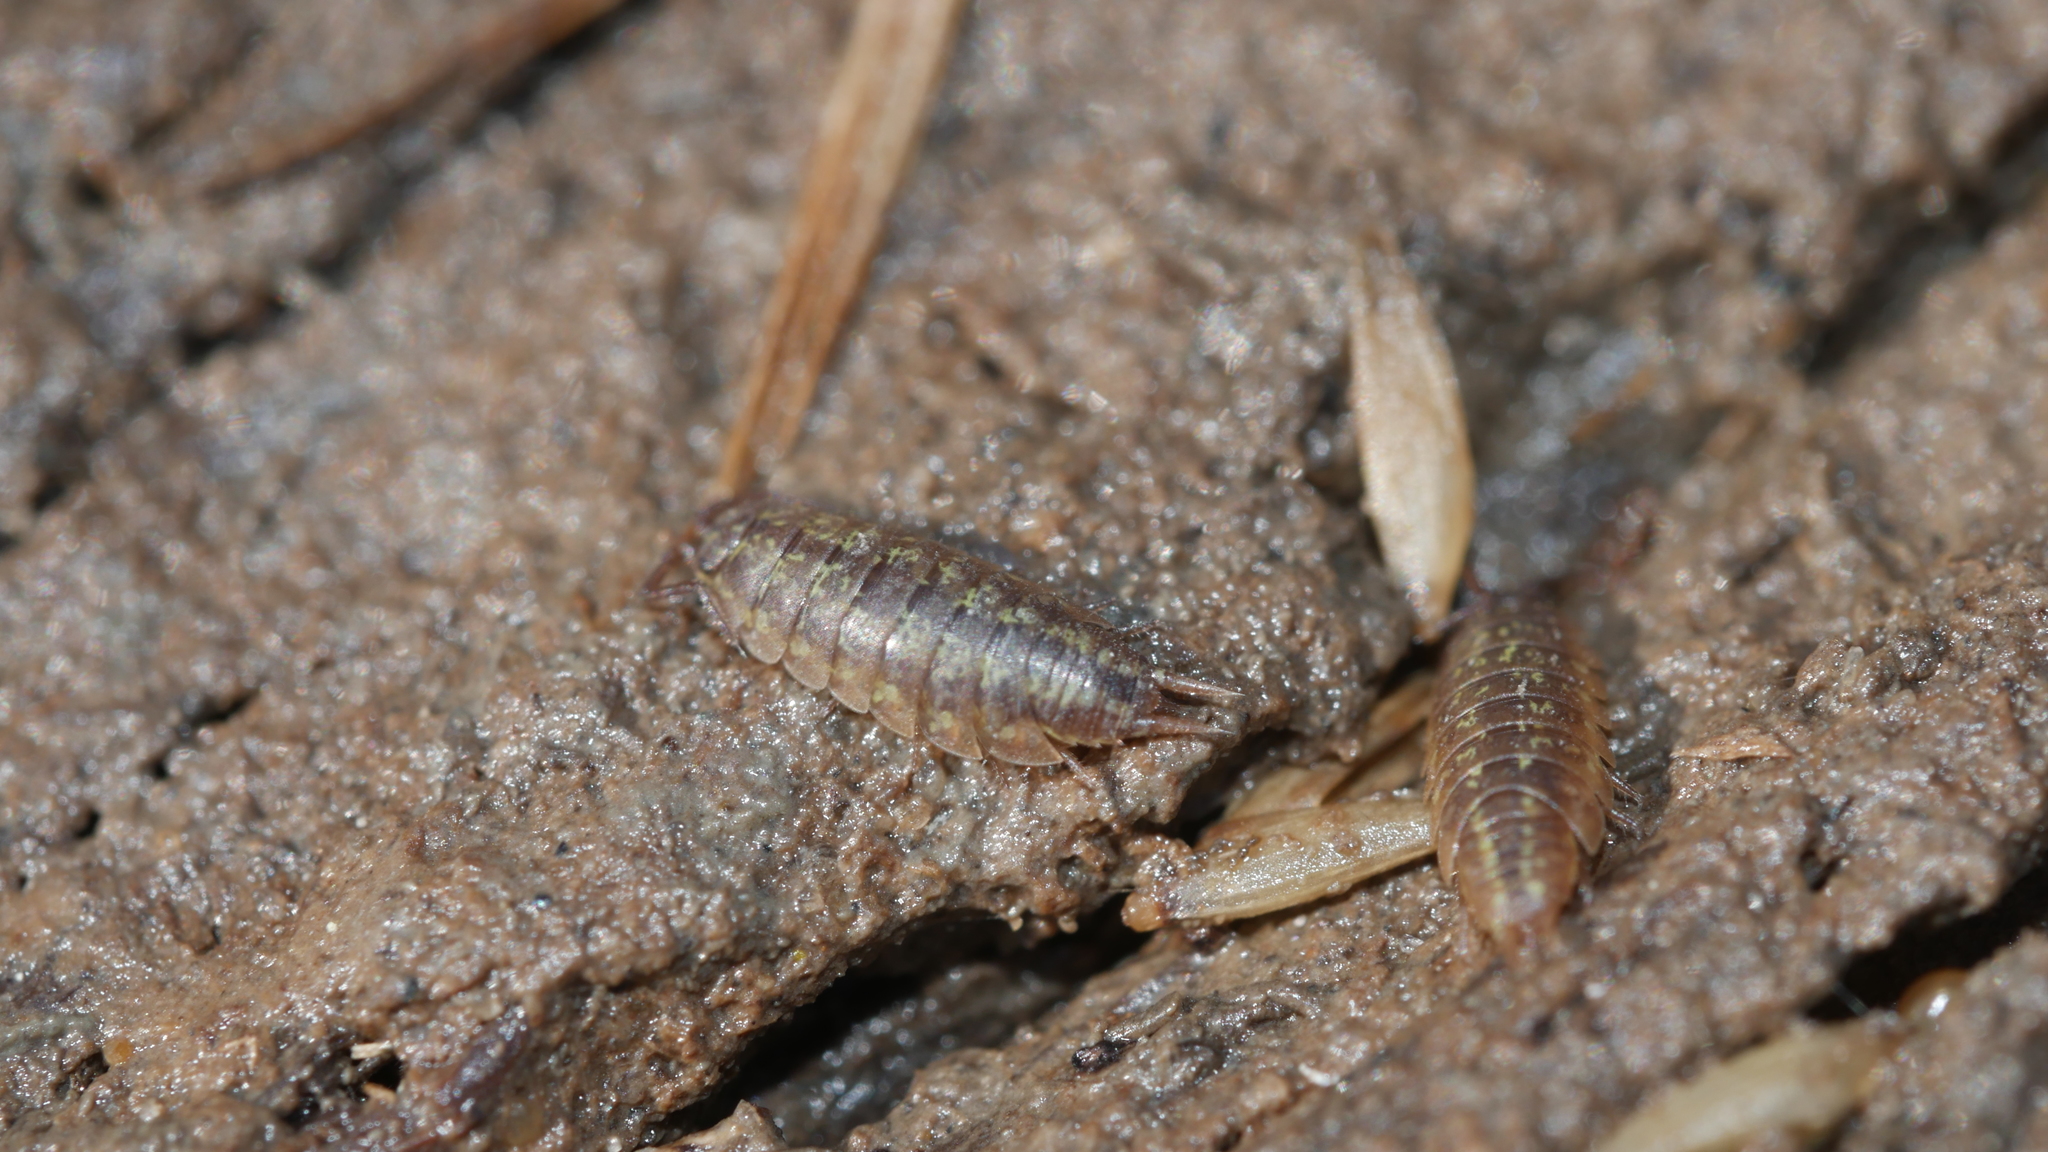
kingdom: Animalia
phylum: Arthropoda
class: Malacostraca
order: Isopoda
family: Halophilosciidae
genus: Littorophiloscia
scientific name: Littorophiloscia vittata
